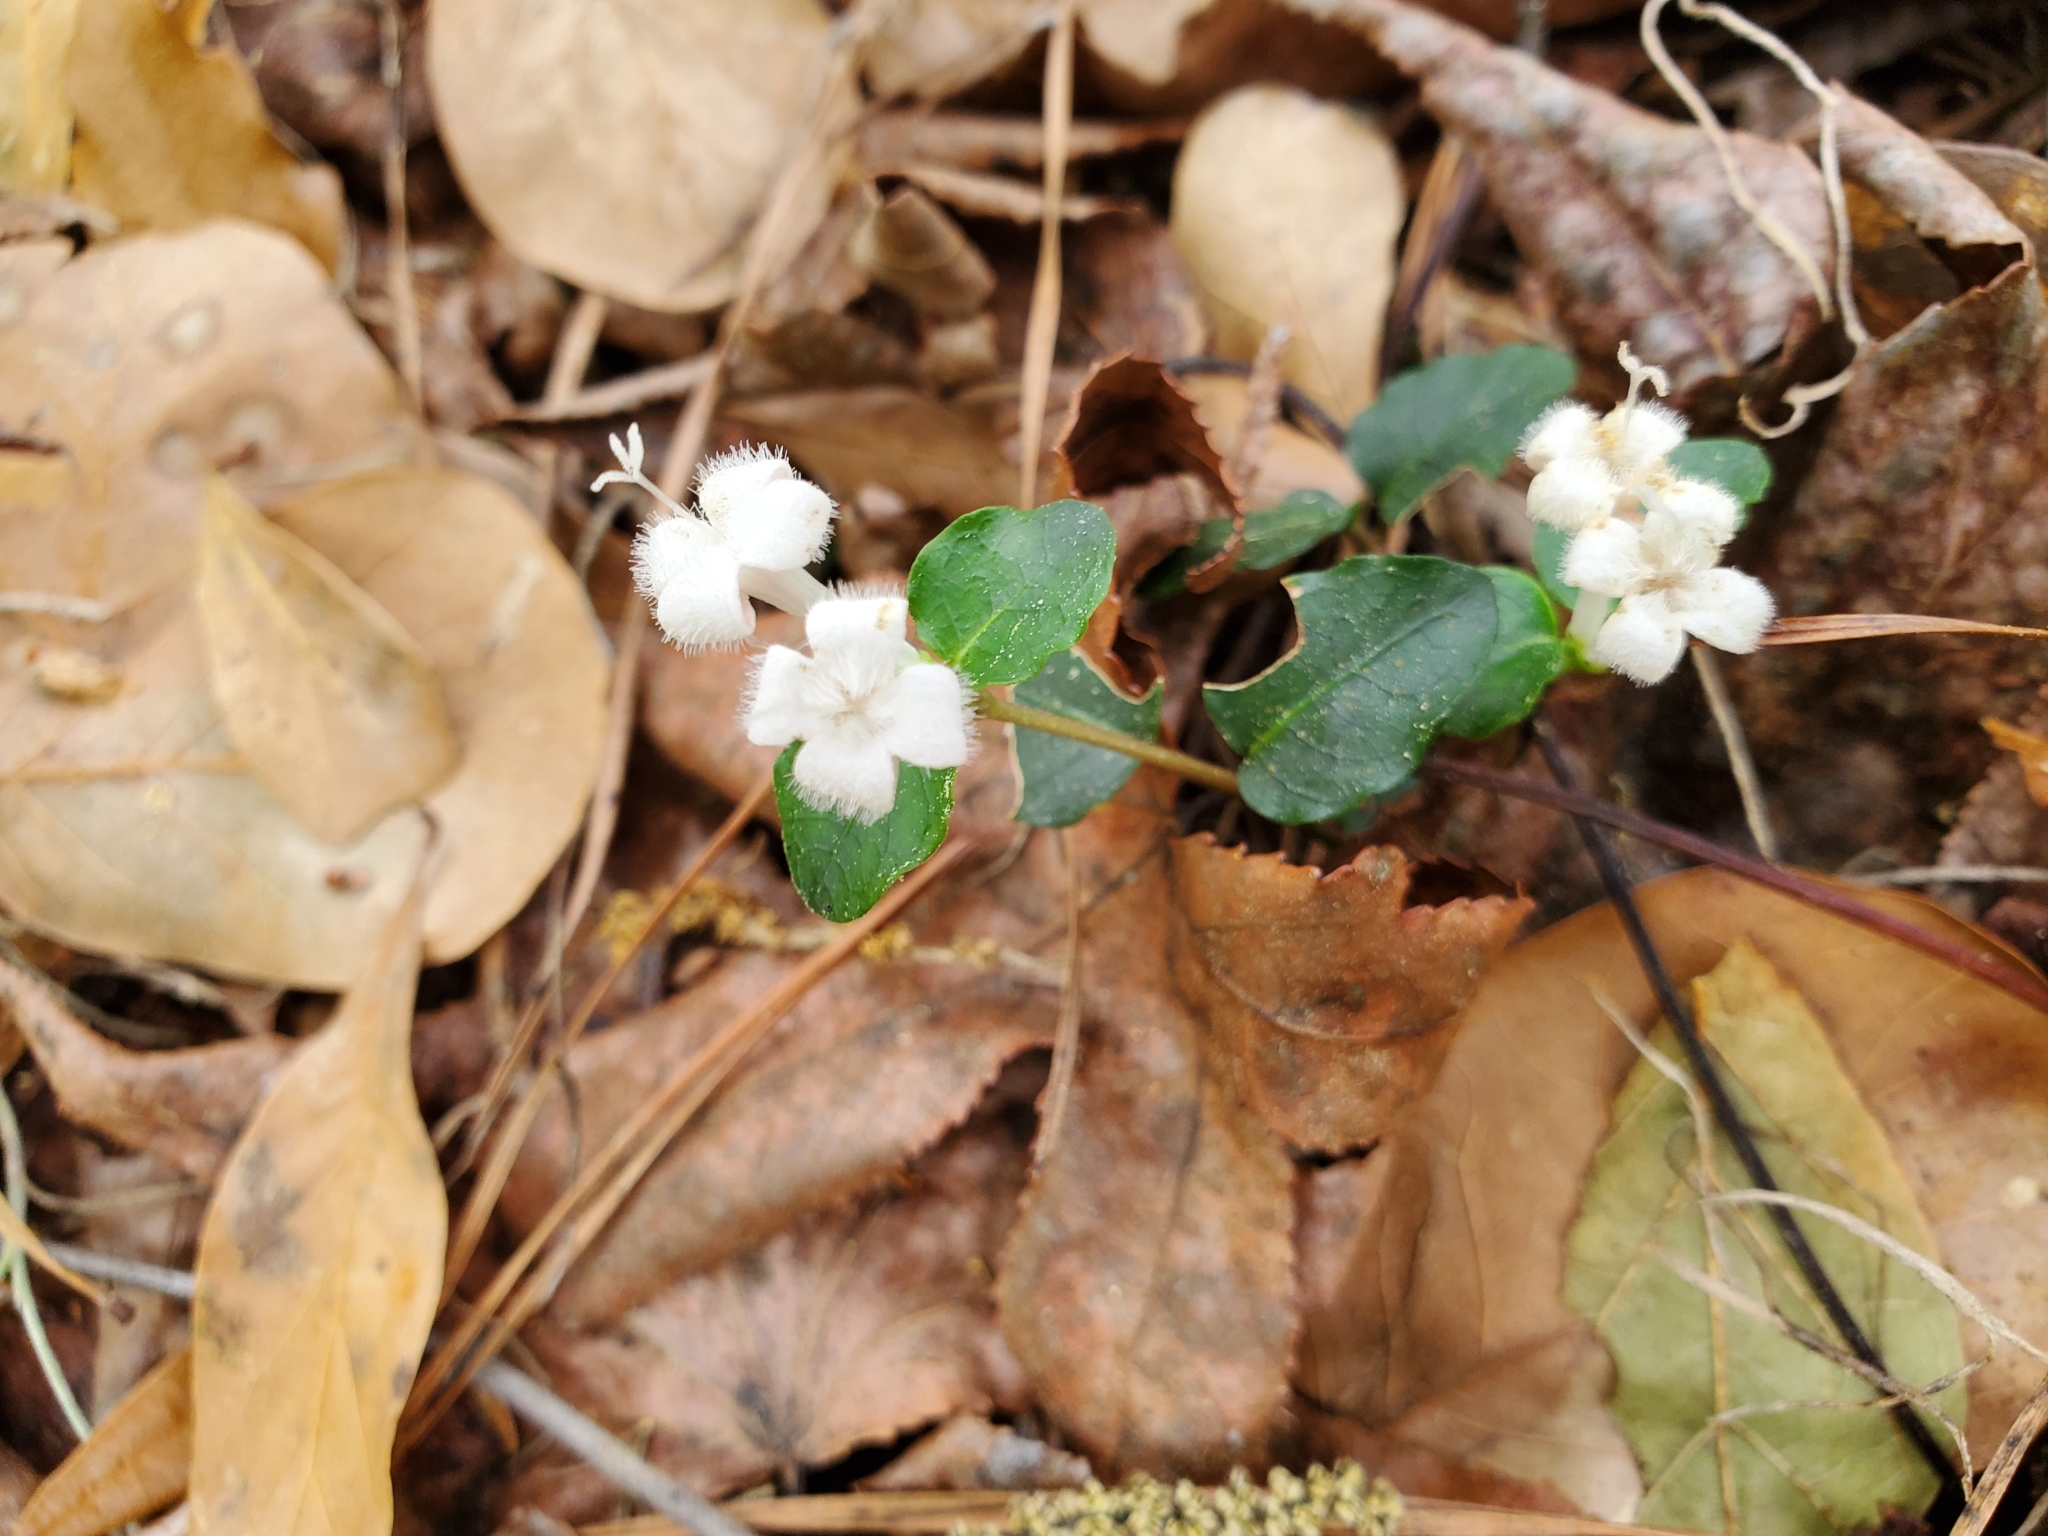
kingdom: Plantae
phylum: Tracheophyta
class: Magnoliopsida
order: Gentianales
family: Rubiaceae
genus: Mitchella
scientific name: Mitchella repens
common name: Partridge-berry
